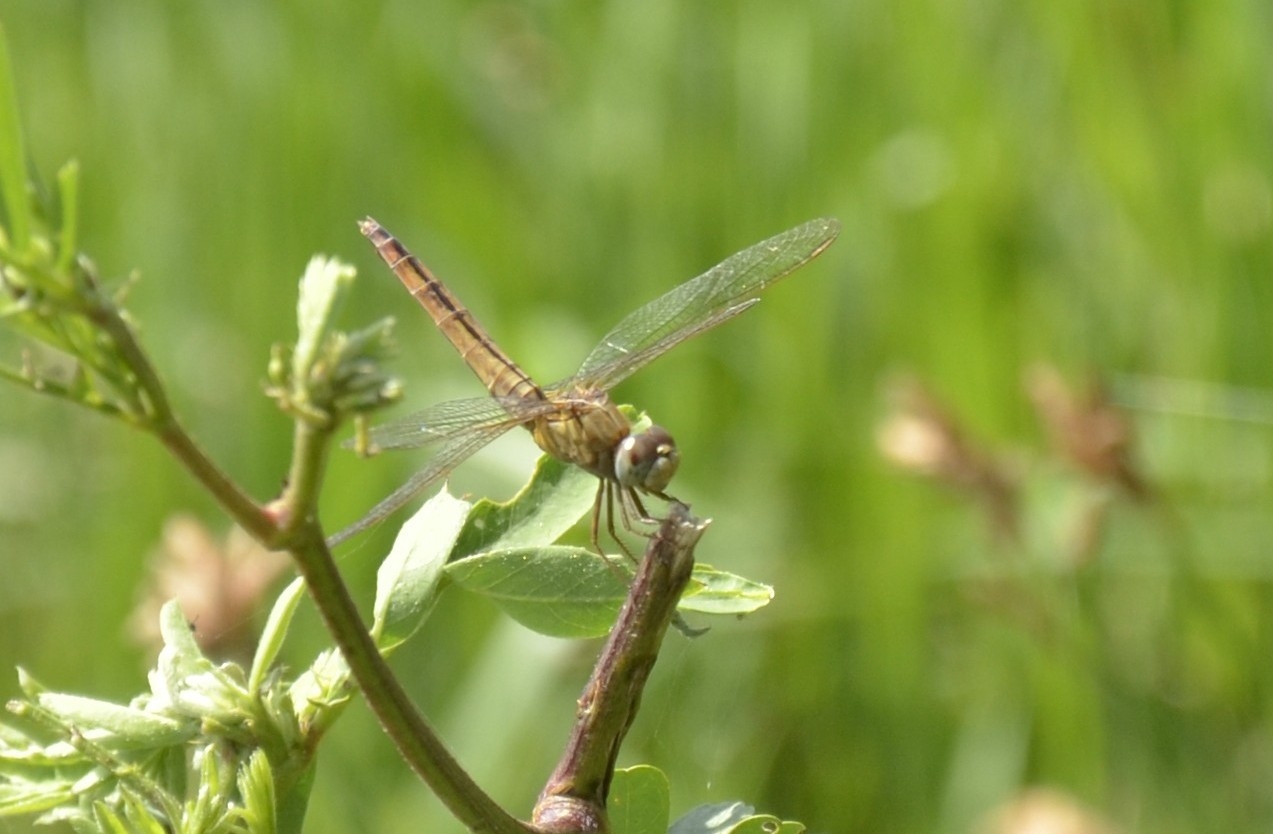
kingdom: Animalia
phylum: Arthropoda
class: Insecta
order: Odonata
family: Libellulidae
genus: Crocothemis
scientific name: Crocothemis servilia
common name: Scarlet skimmer
